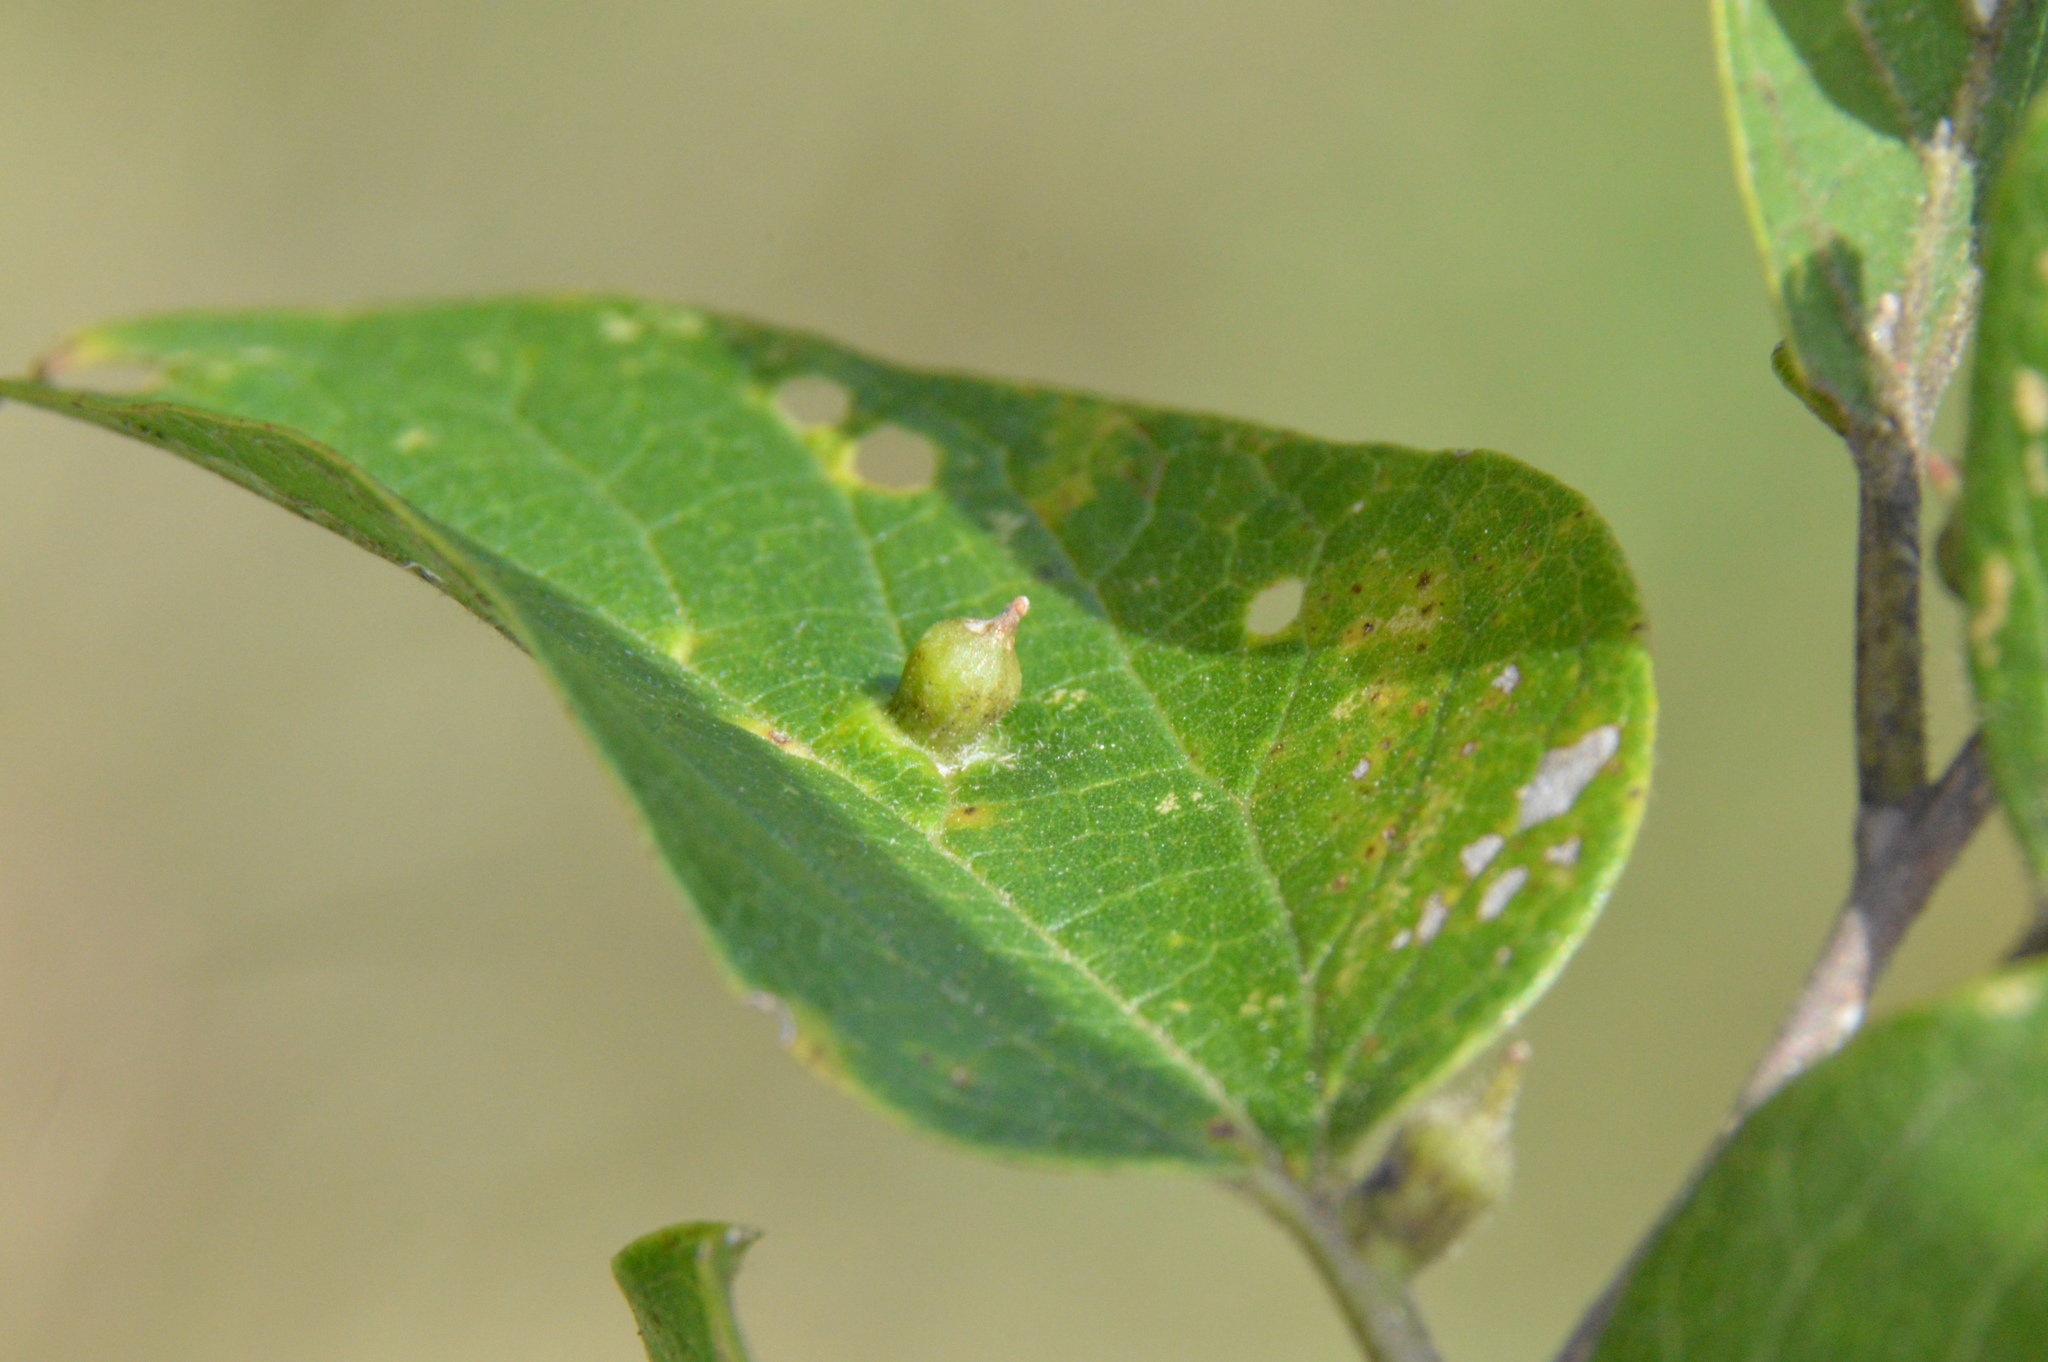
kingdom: Animalia
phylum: Arthropoda
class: Insecta
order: Diptera
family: Cecidomyiidae
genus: Celticecis
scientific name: Celticecis ramicola
